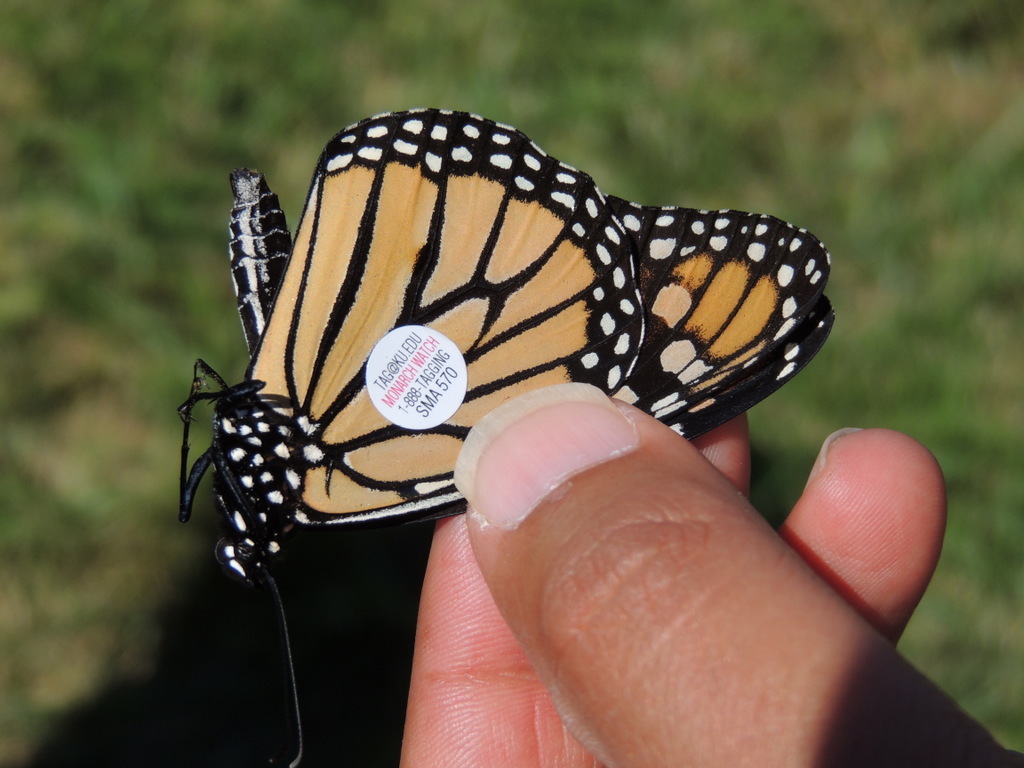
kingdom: Animalia
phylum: Arthropoda
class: Insecta
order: Lepidoptera
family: Nymphalidae
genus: Danaus
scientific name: Danaus plexippus
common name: Monarch
